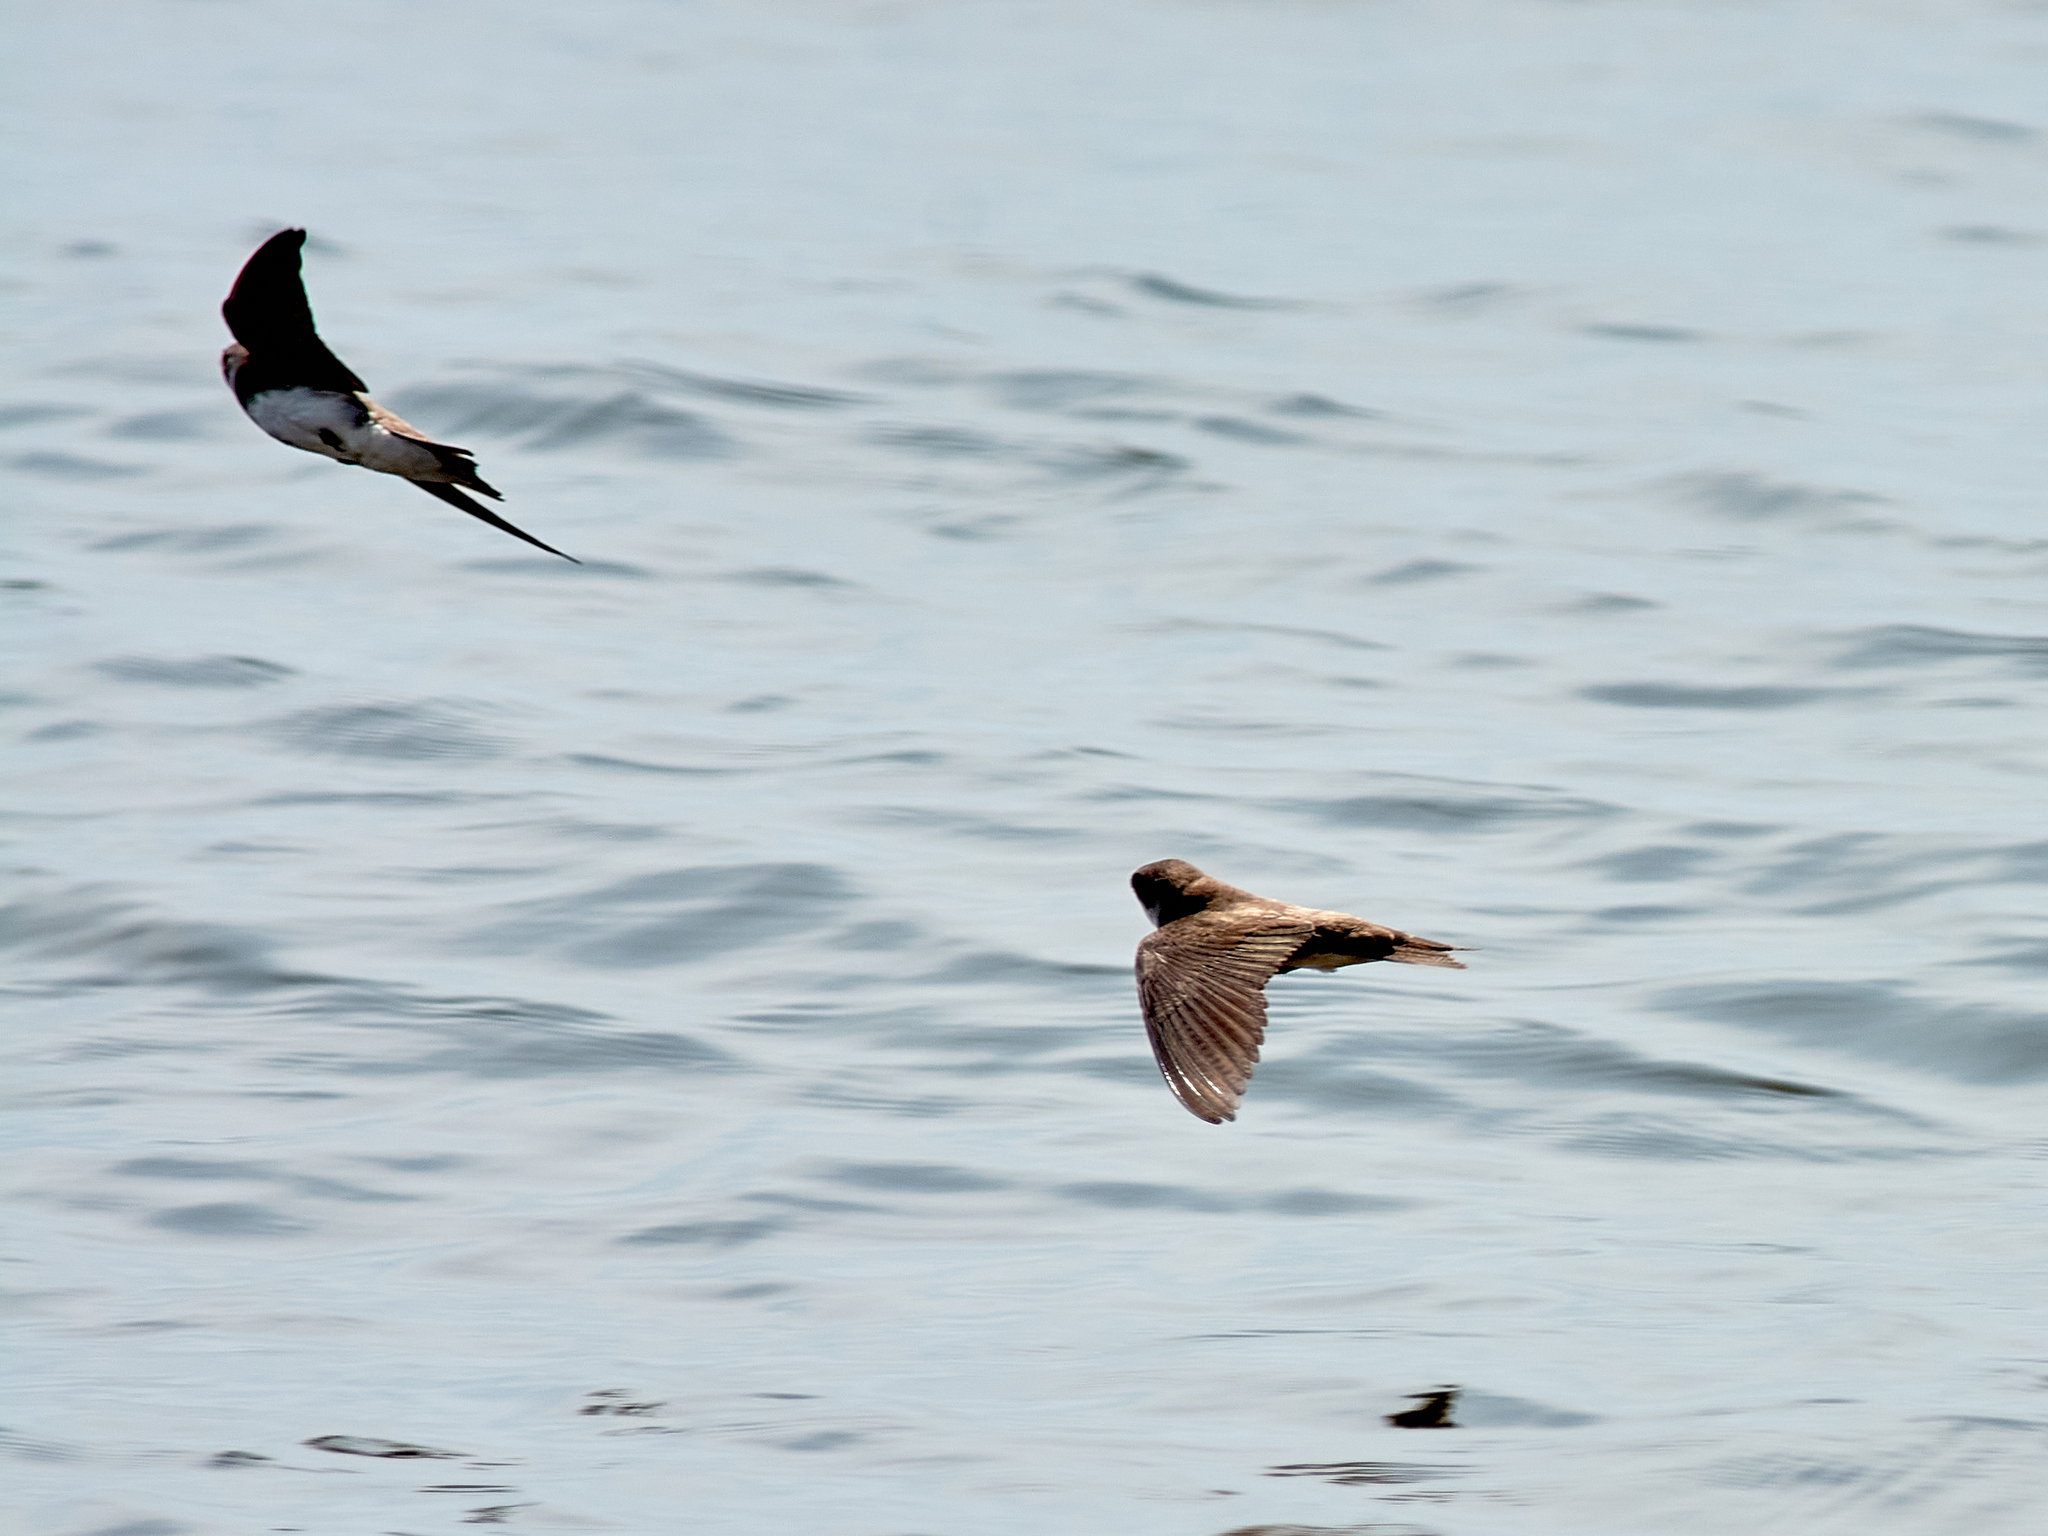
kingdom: Animalia
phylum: Chordata
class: Aves
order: Passeriformes
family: Hirundinidae
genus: Riparia
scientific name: Riparia riparia
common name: Sand martin
